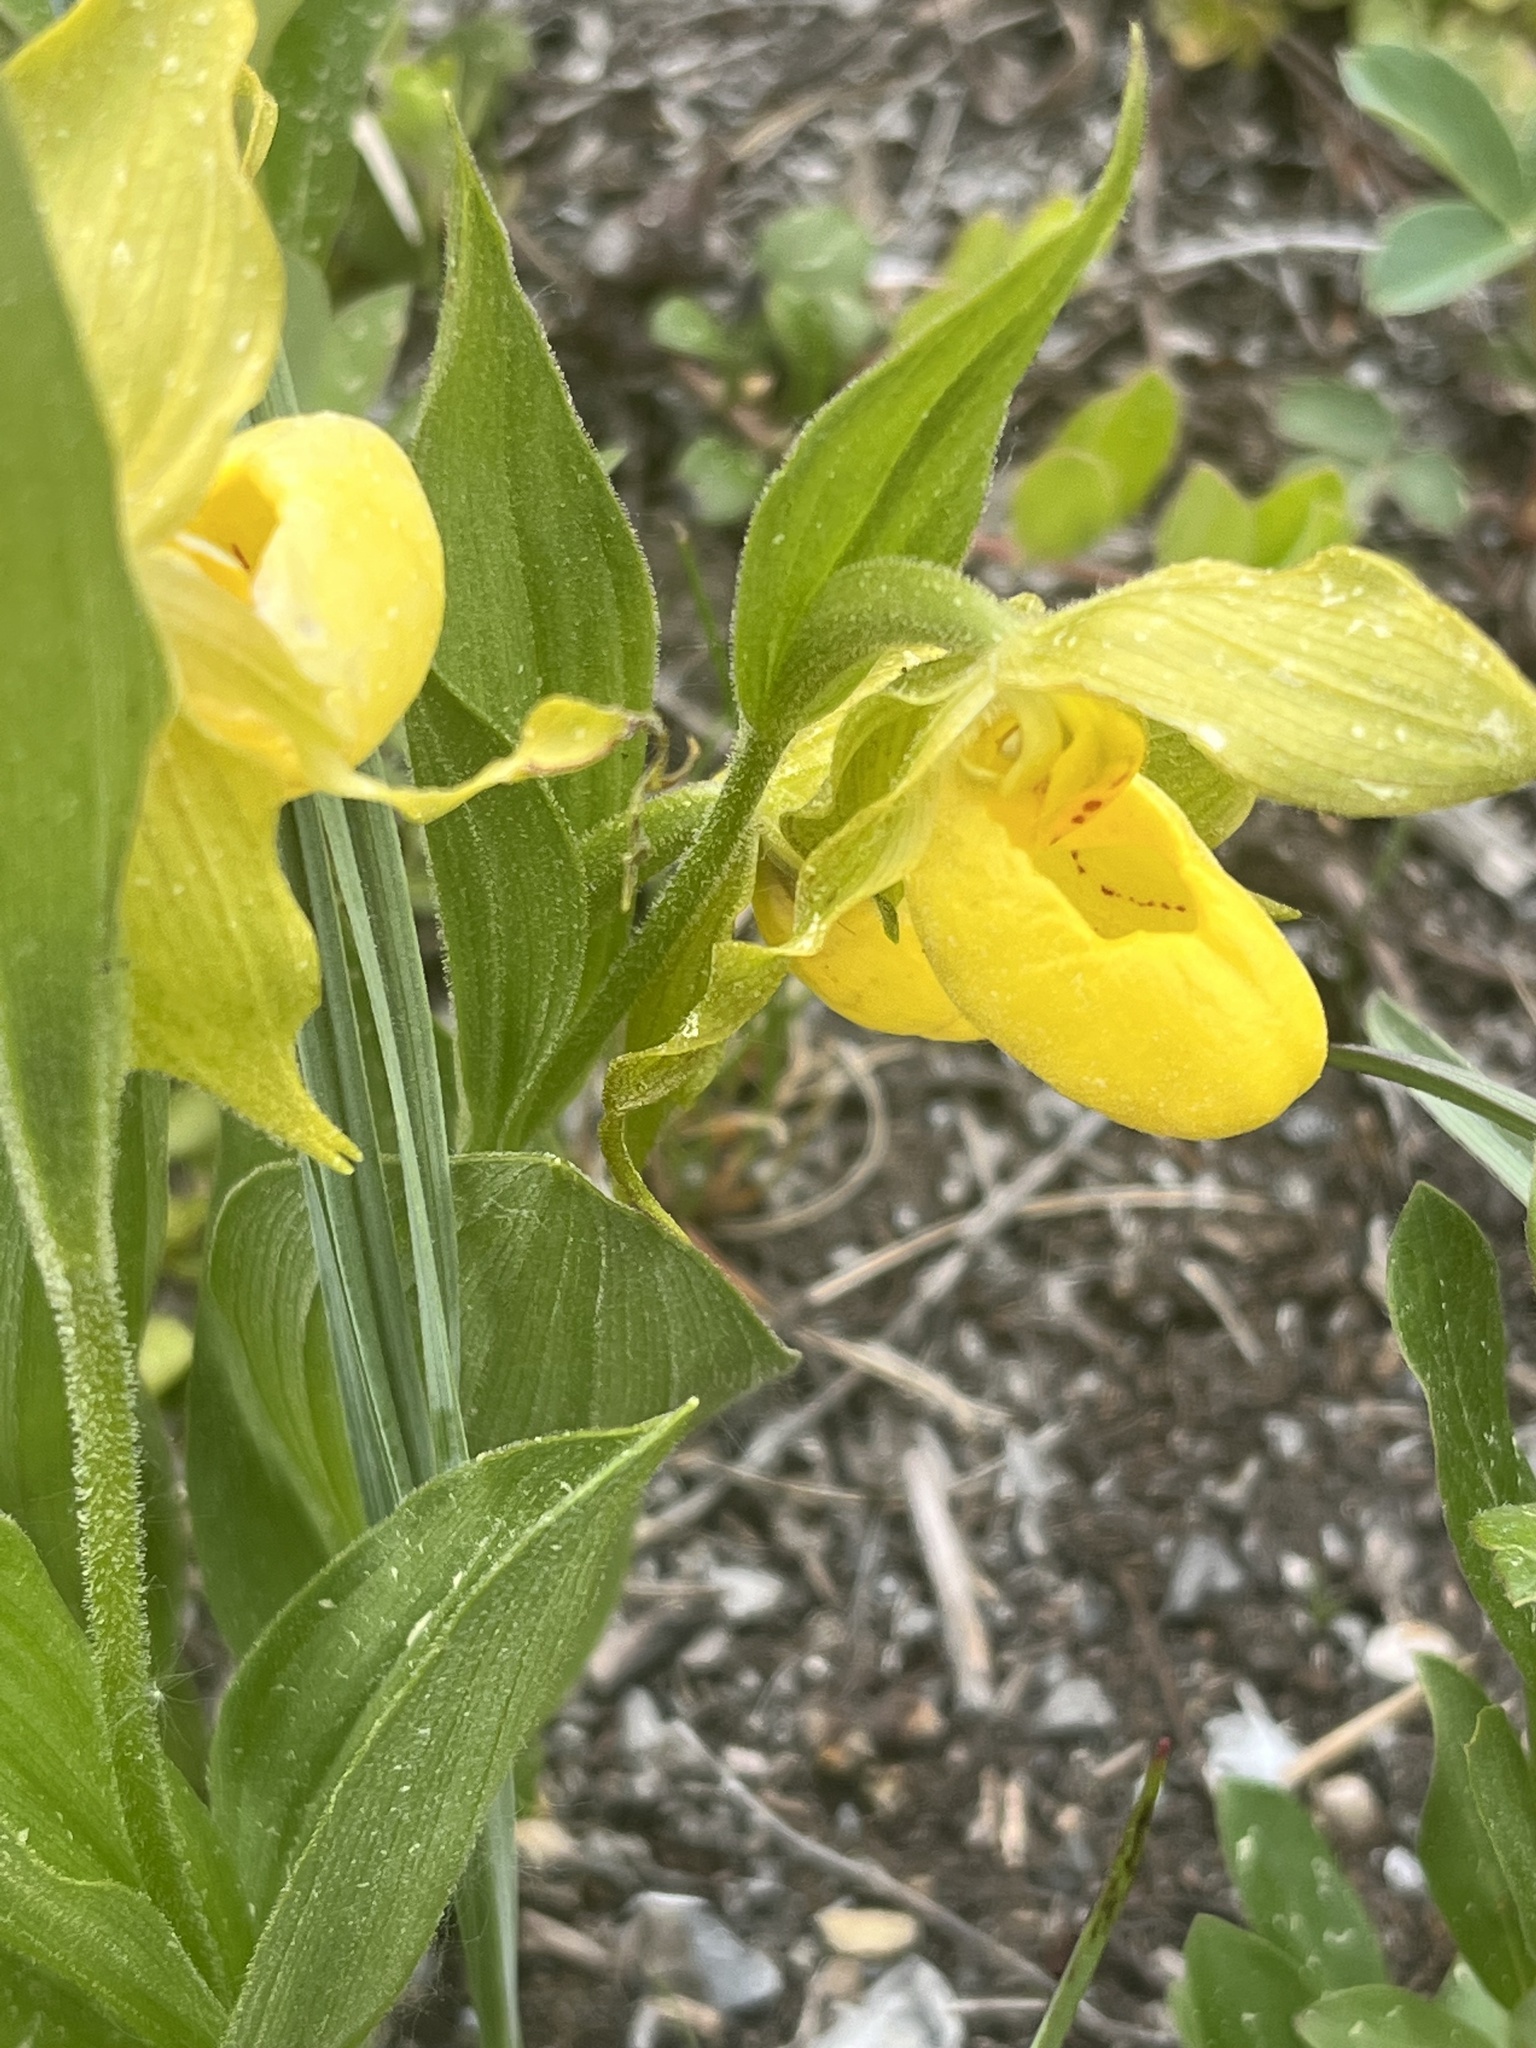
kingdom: Plantae
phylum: Tracheophyta
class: Liliopsida
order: Asparagales
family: Orchidaceae
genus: Cypripedium
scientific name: Cypripedium parviflorum
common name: American yellow lady's-slipper
